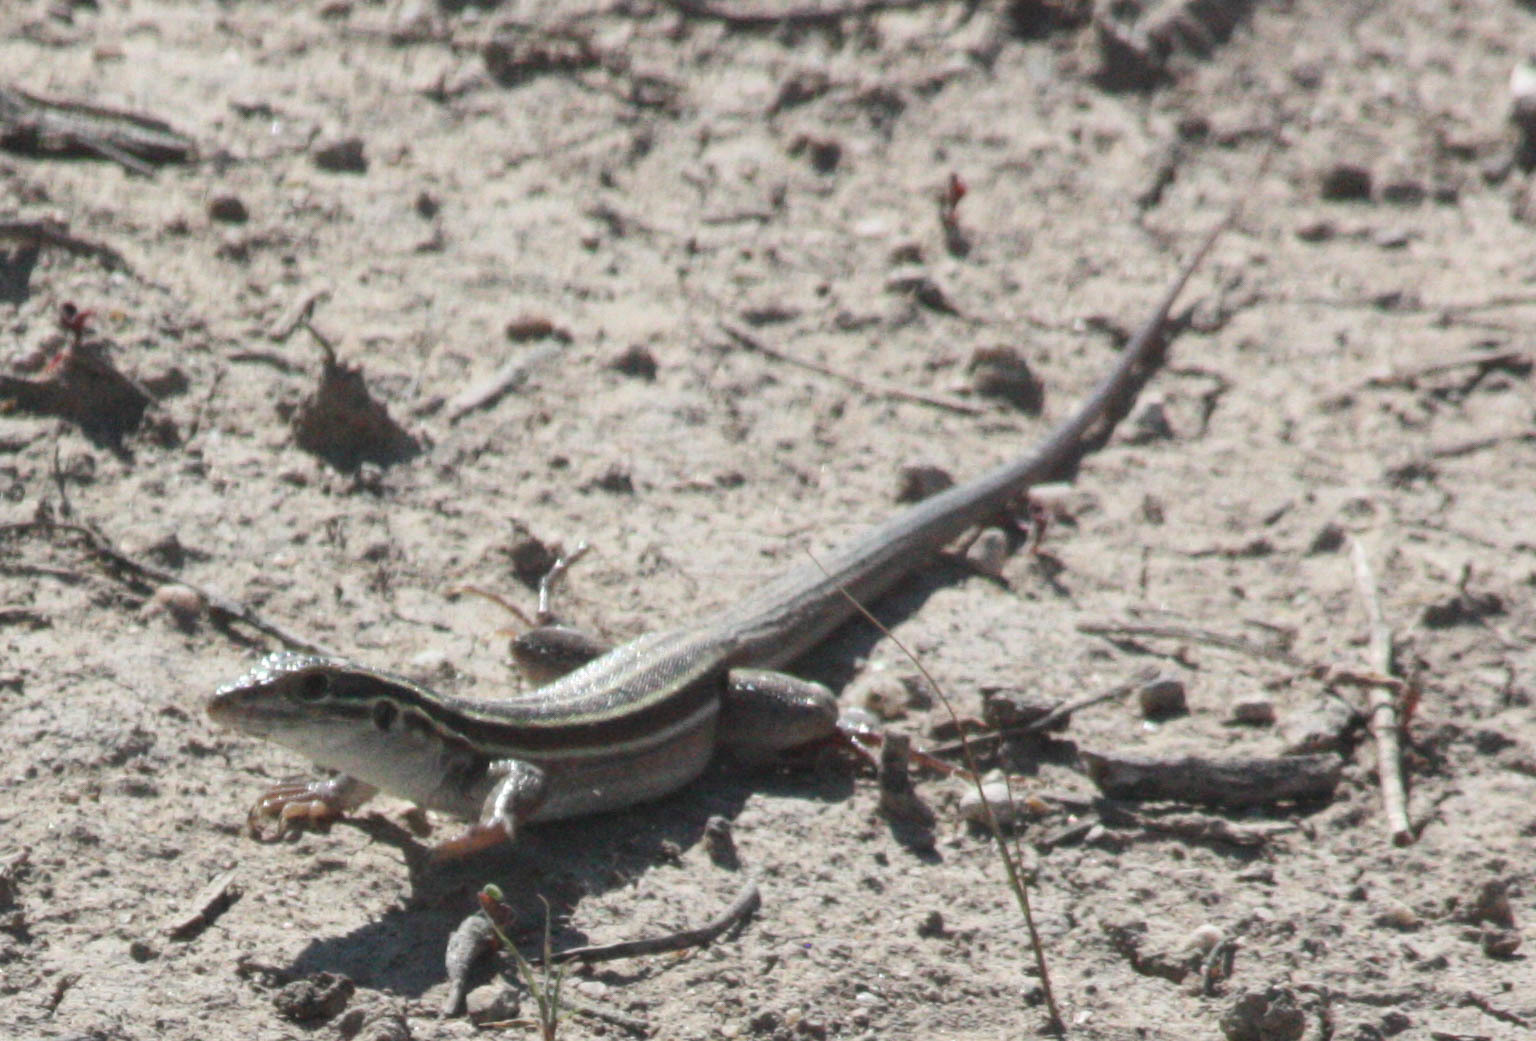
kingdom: Animalia
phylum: Chordata
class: Squamata
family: Teiidae
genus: Aspidoscelis
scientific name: Aspidoscelis uniparens
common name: Desert grassland whiptail
